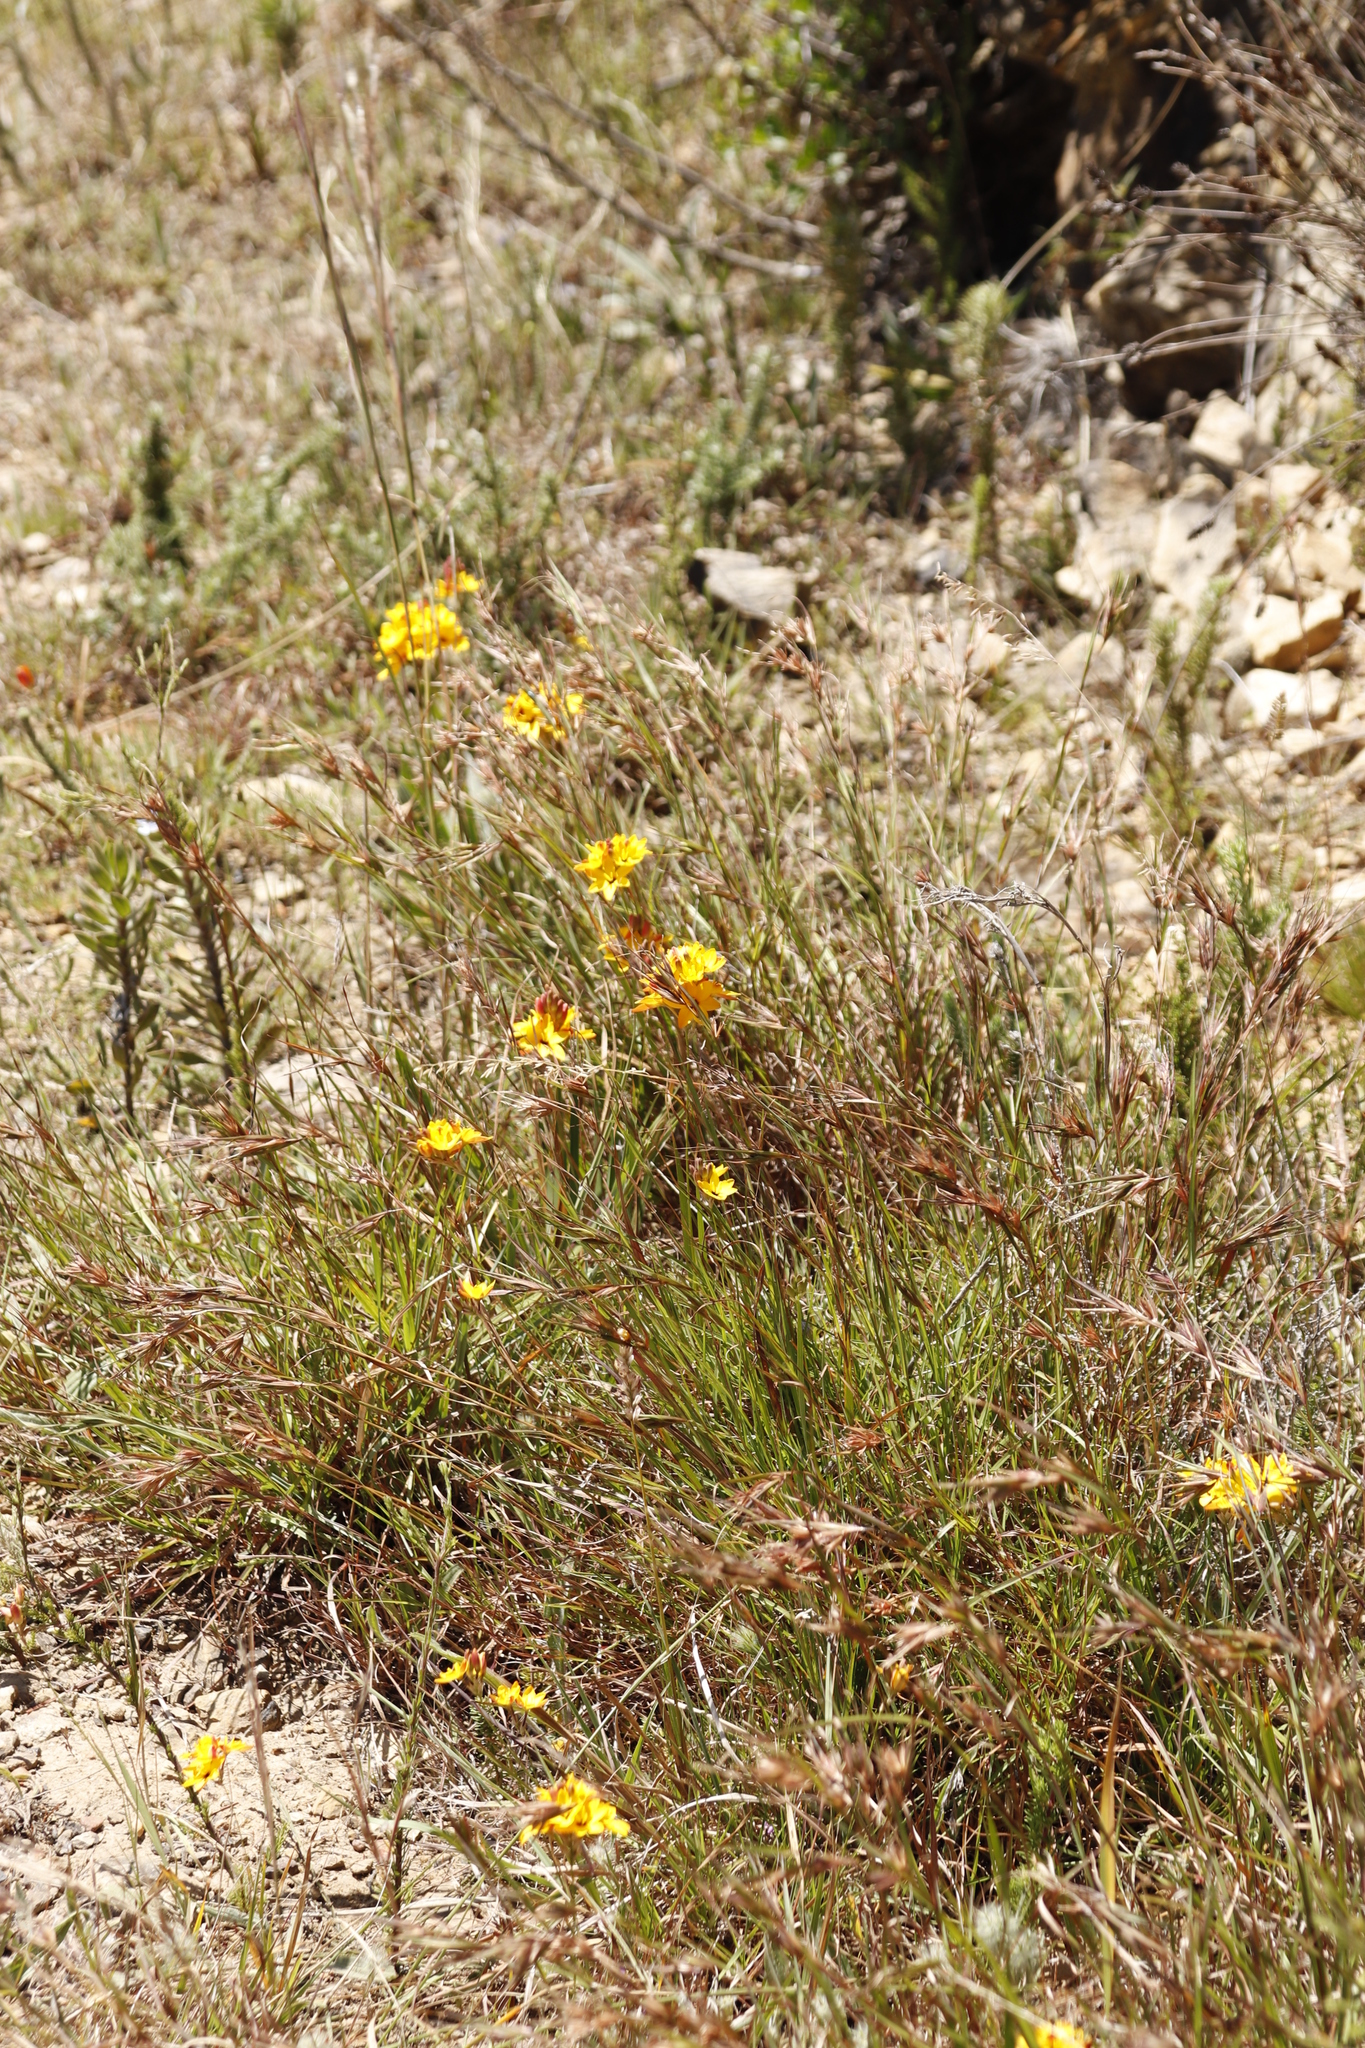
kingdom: Plantae
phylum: Tracheophyta
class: Liliopsida
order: Asparagales
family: Iridaceae
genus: Ixia
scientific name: Ixia dubia
